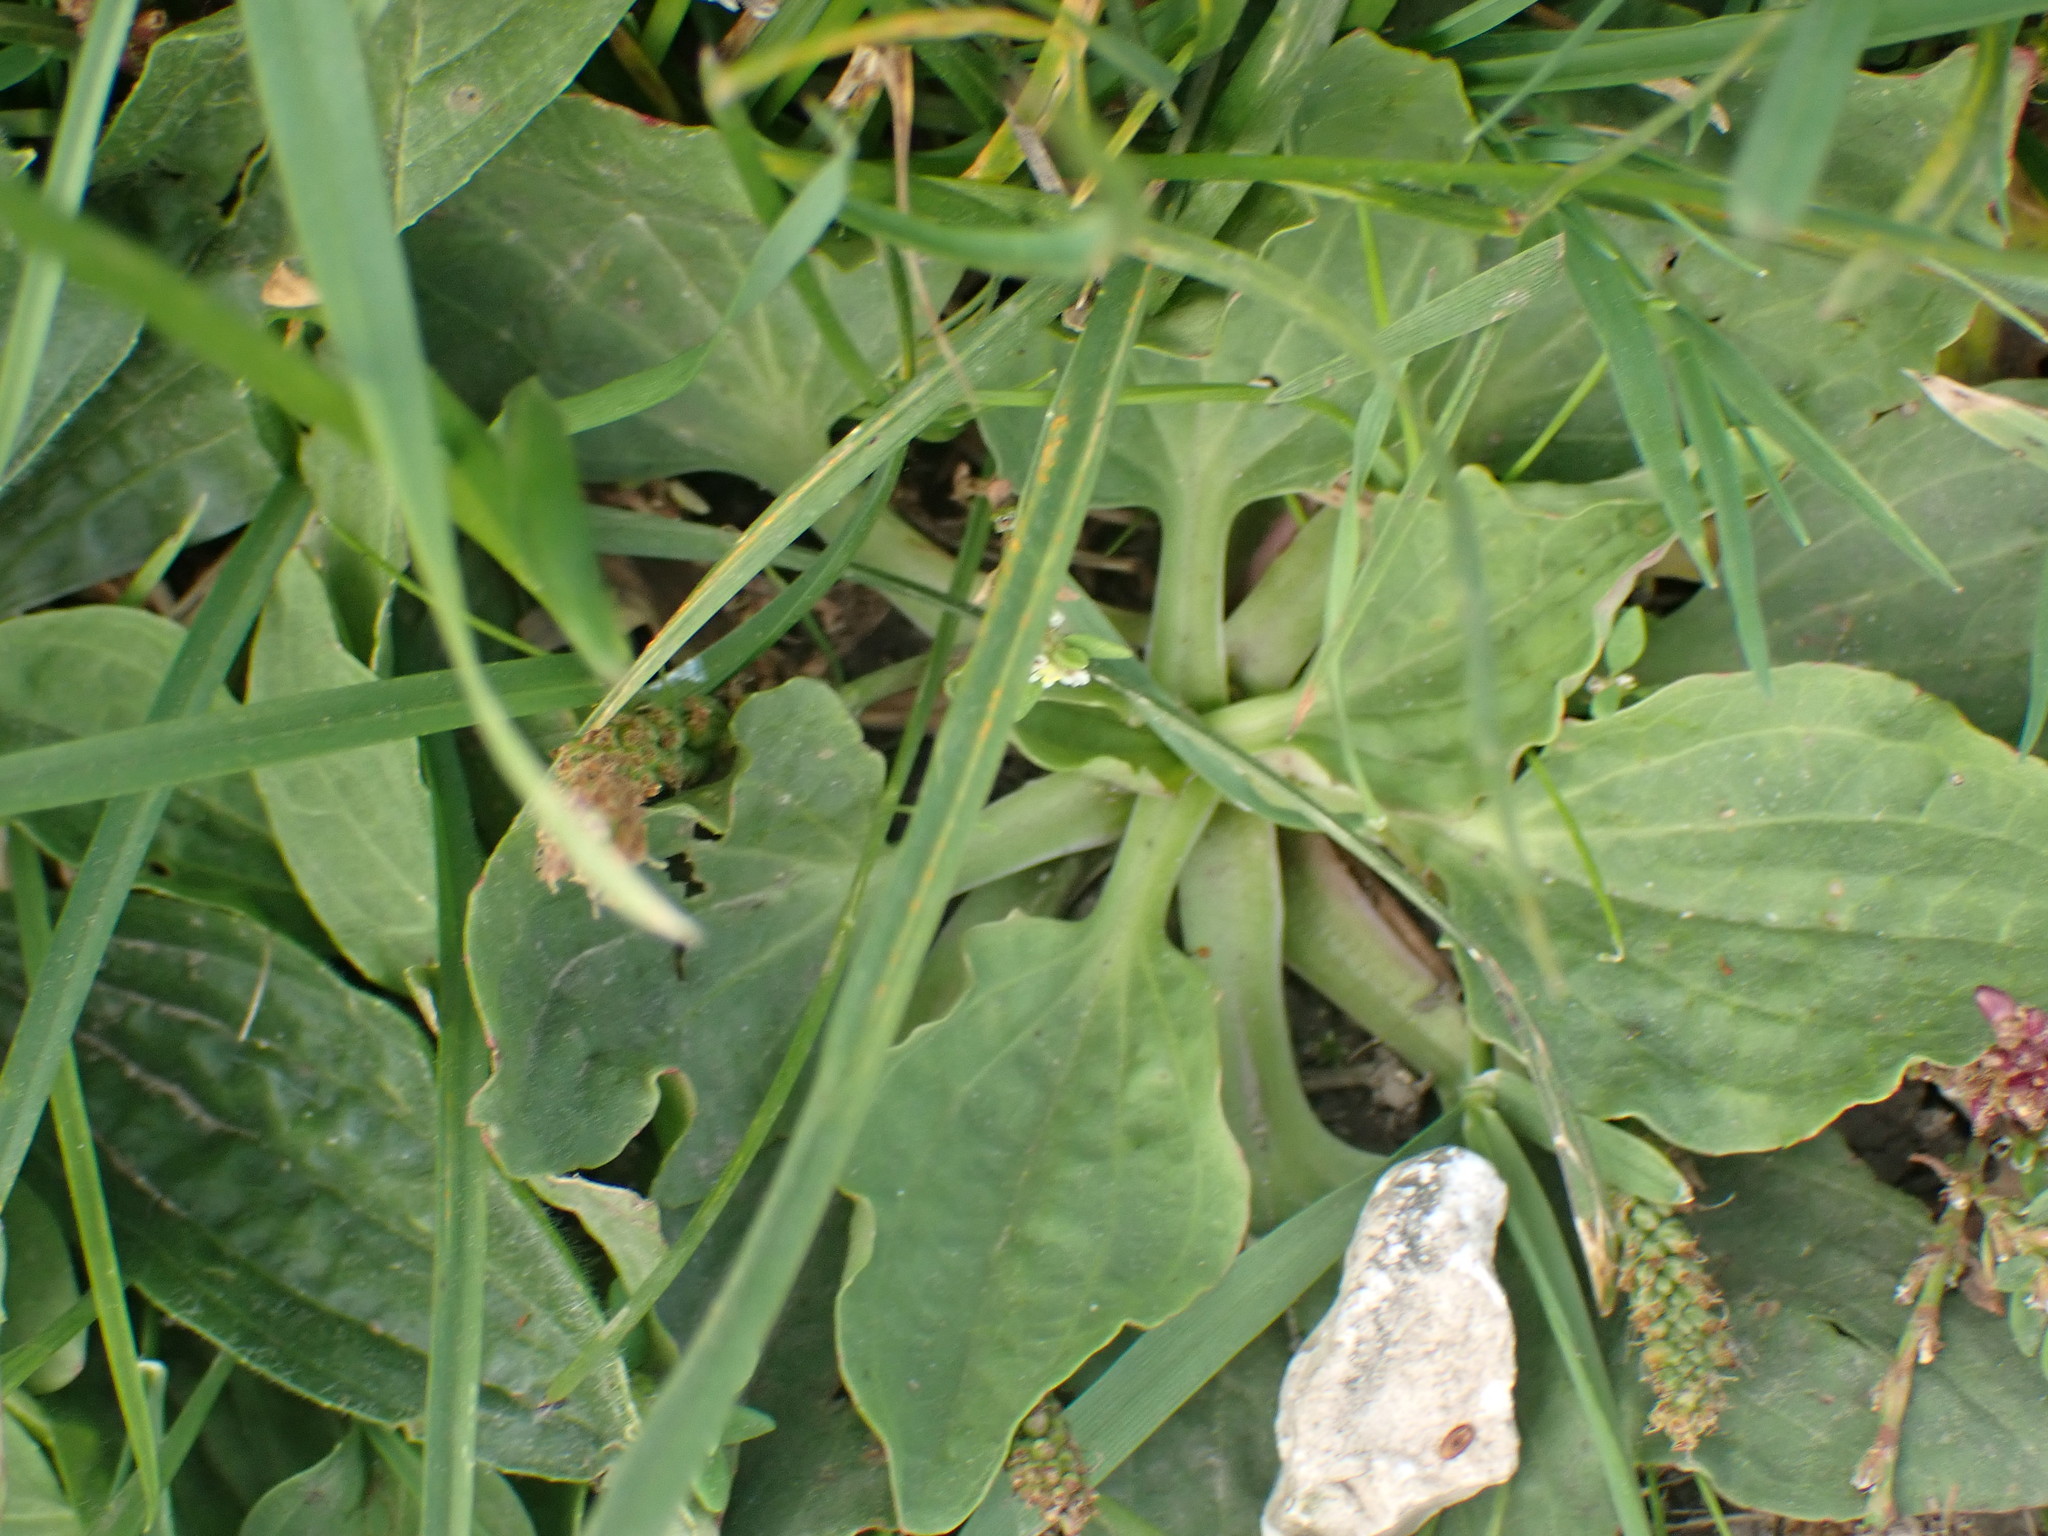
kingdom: Plantae
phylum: Tracheophyta
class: Magnoliopsida
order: Lamiales
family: Plantaginaceae
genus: Plantago
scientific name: Plantago major
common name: Common plantain
